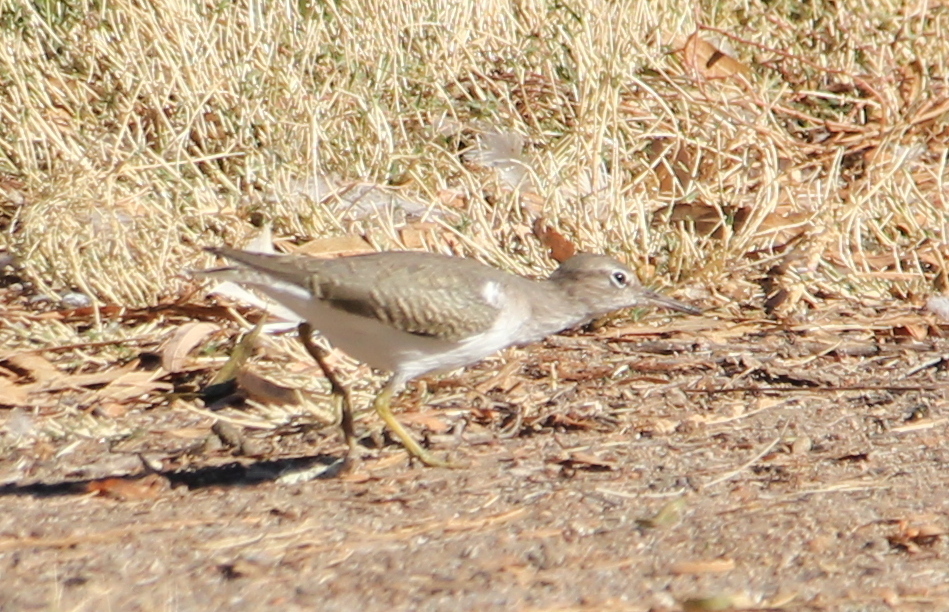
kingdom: Animalia
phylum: Chordata
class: Aves
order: Charadriiformes
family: Scolopacidae
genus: Actitis
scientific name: Actitis macularius
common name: Spotted sandpiper
